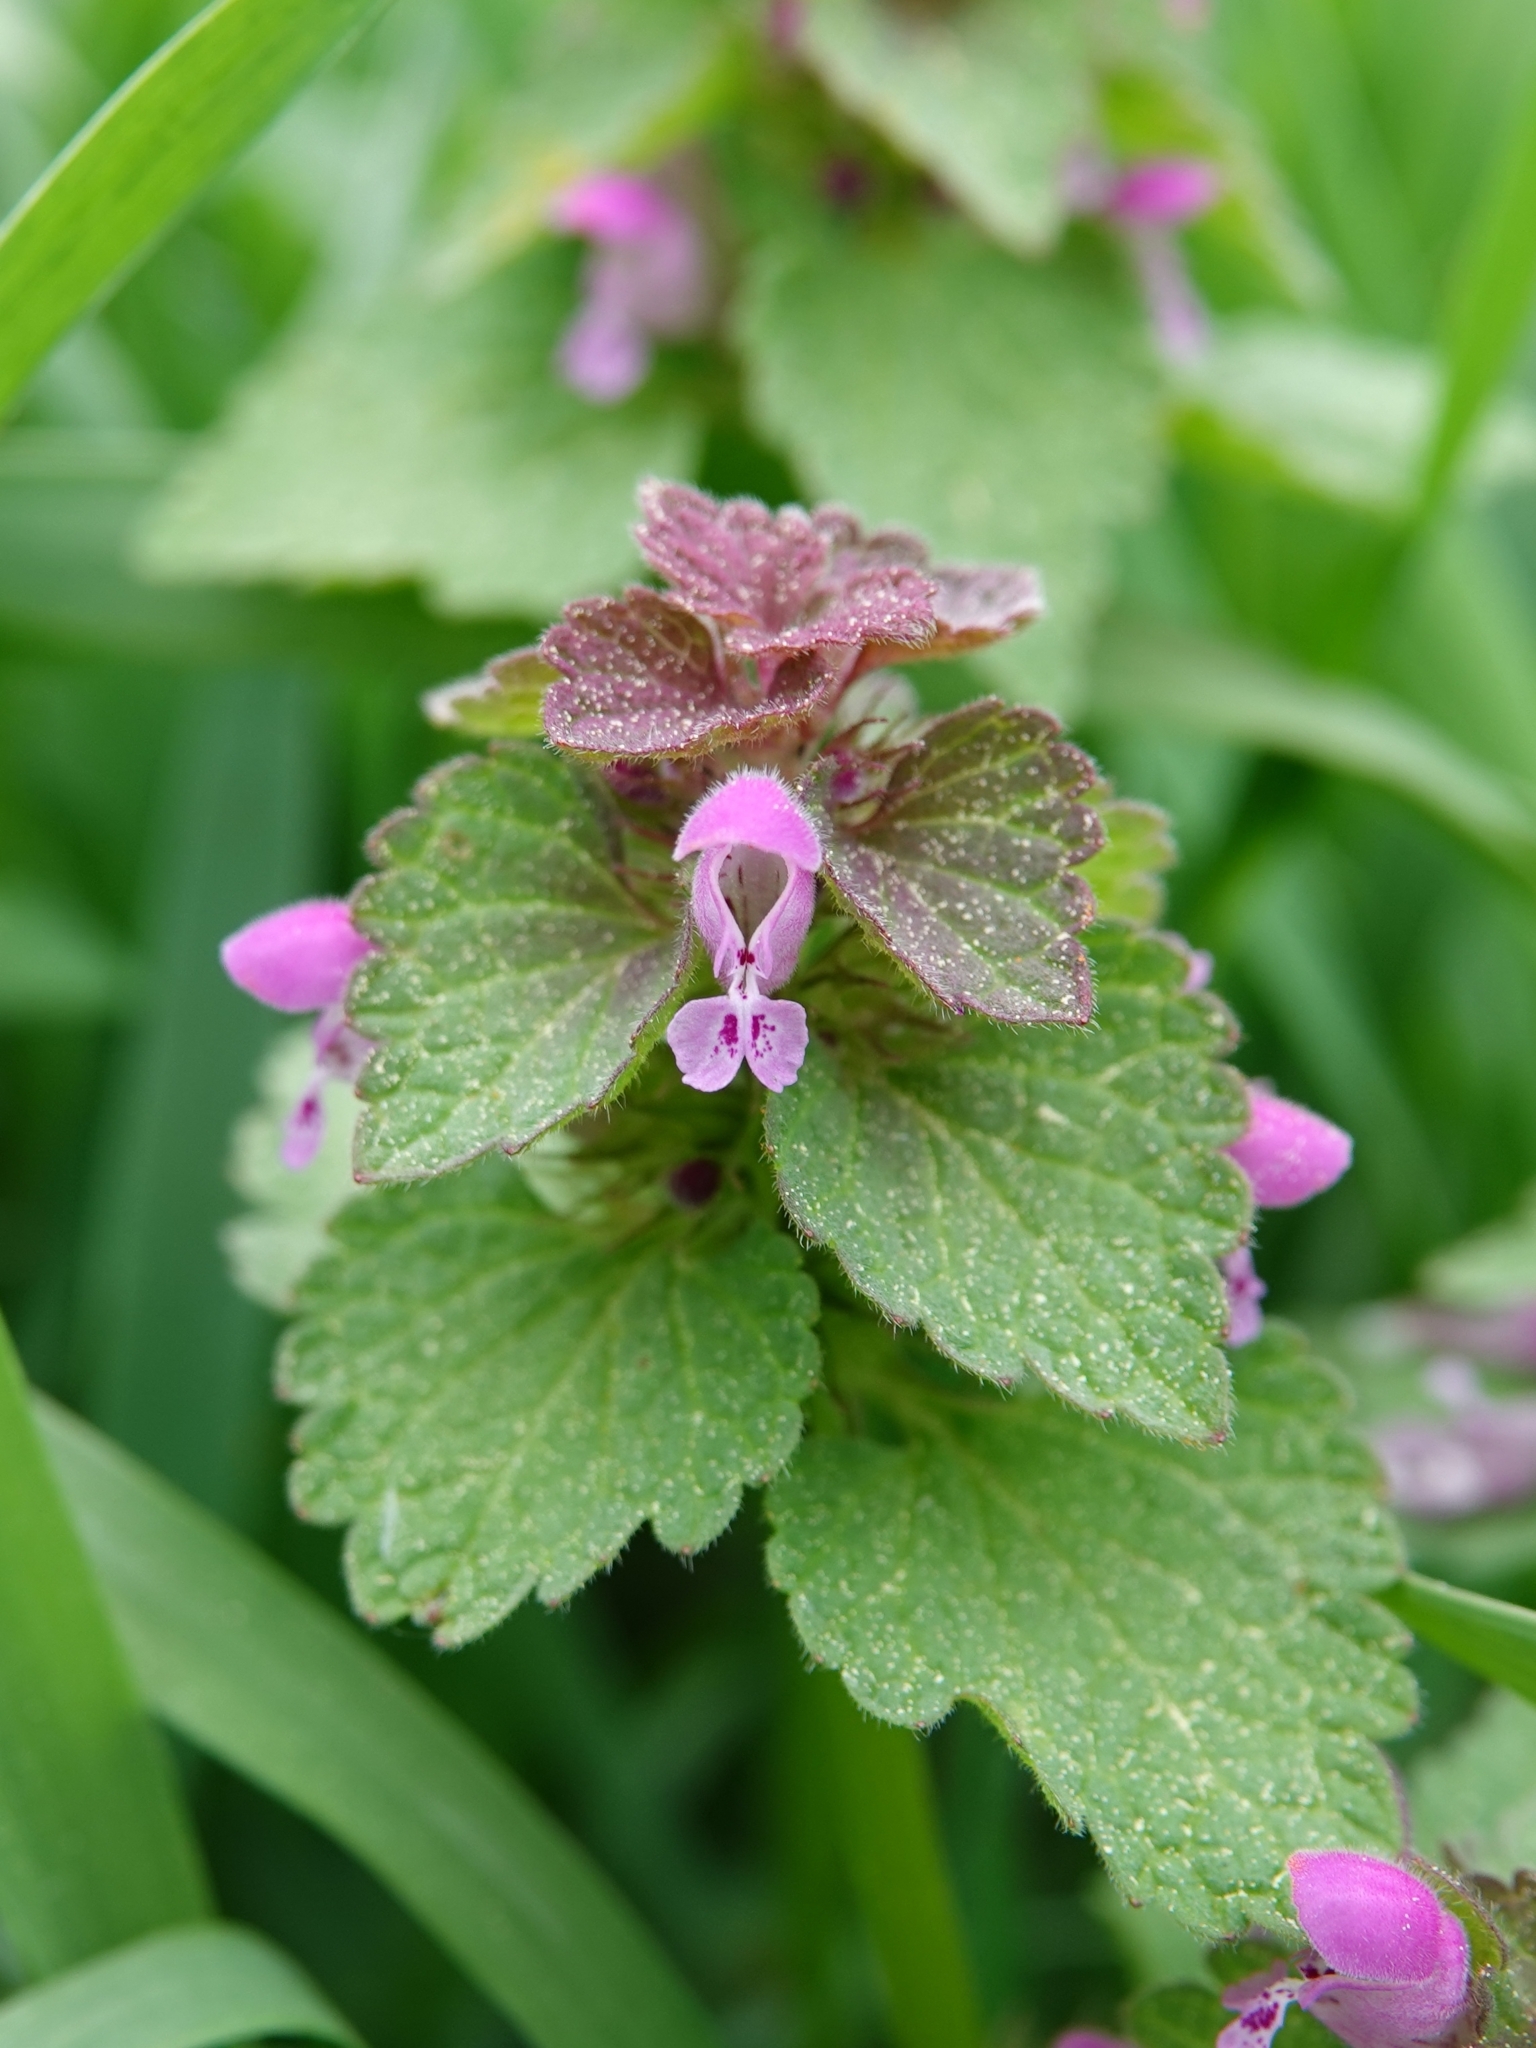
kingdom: Plantae
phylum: Tracheophyta
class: Magnoliopsida
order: Lamiales
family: Lamiaceae
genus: Lamium
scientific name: Lamium purpureum
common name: Red dead-nettle
